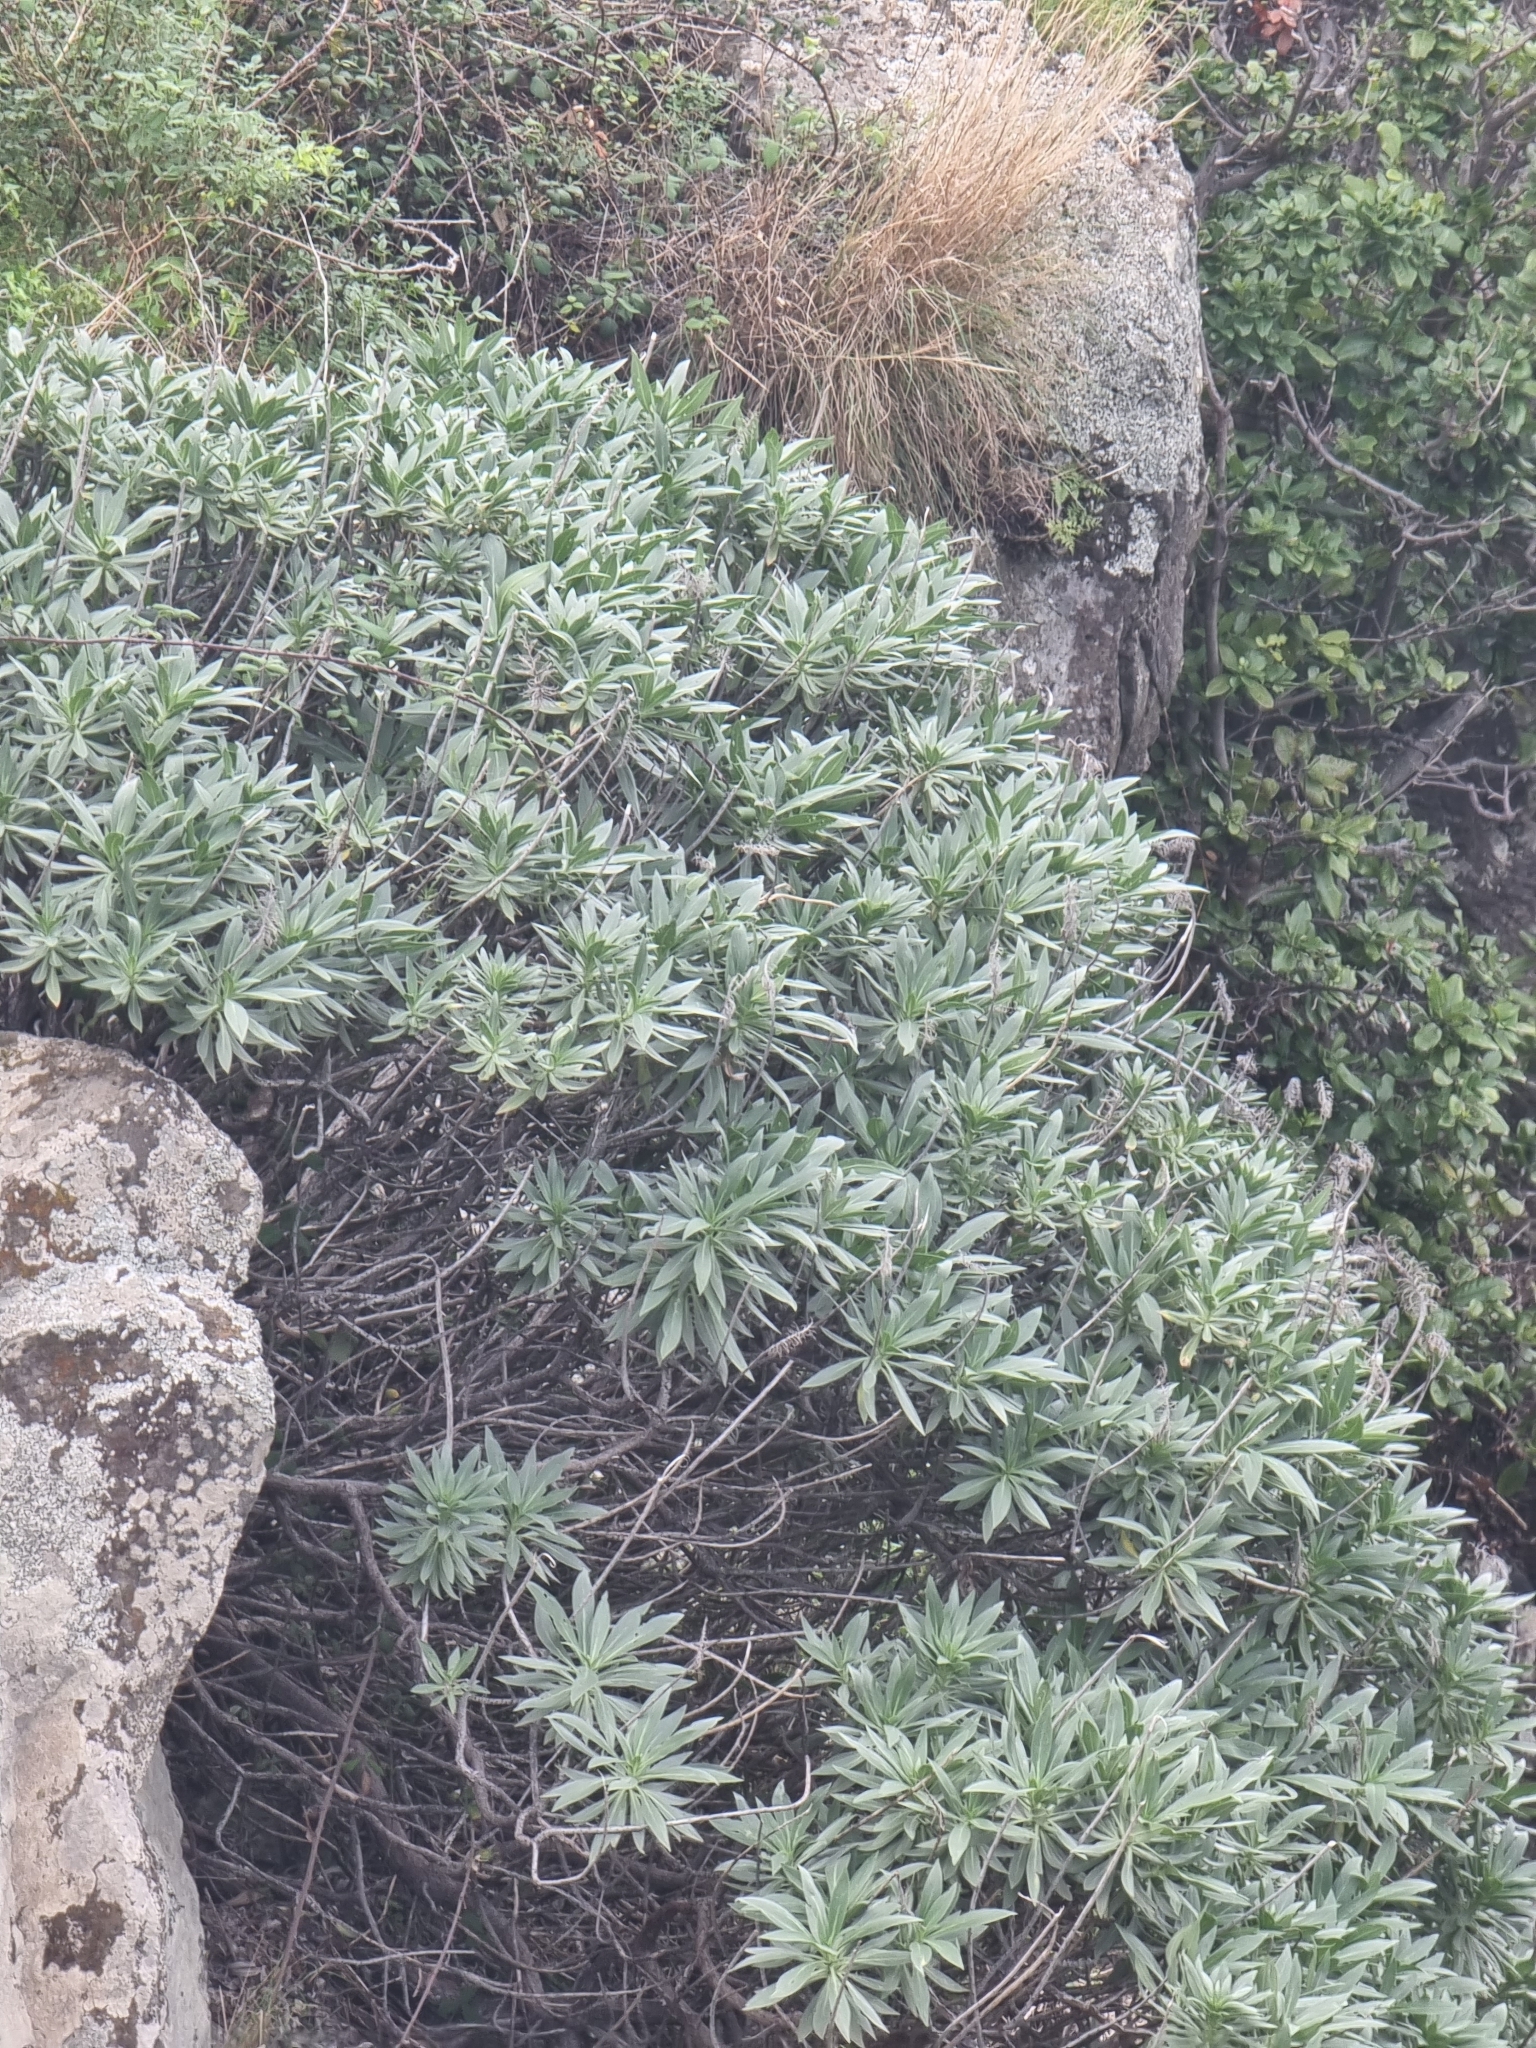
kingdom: Plantae
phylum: Tracheophyta
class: Magnoliopsida
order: Boraginales
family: Boraginaceae
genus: Echium
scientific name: Echium nervosum
